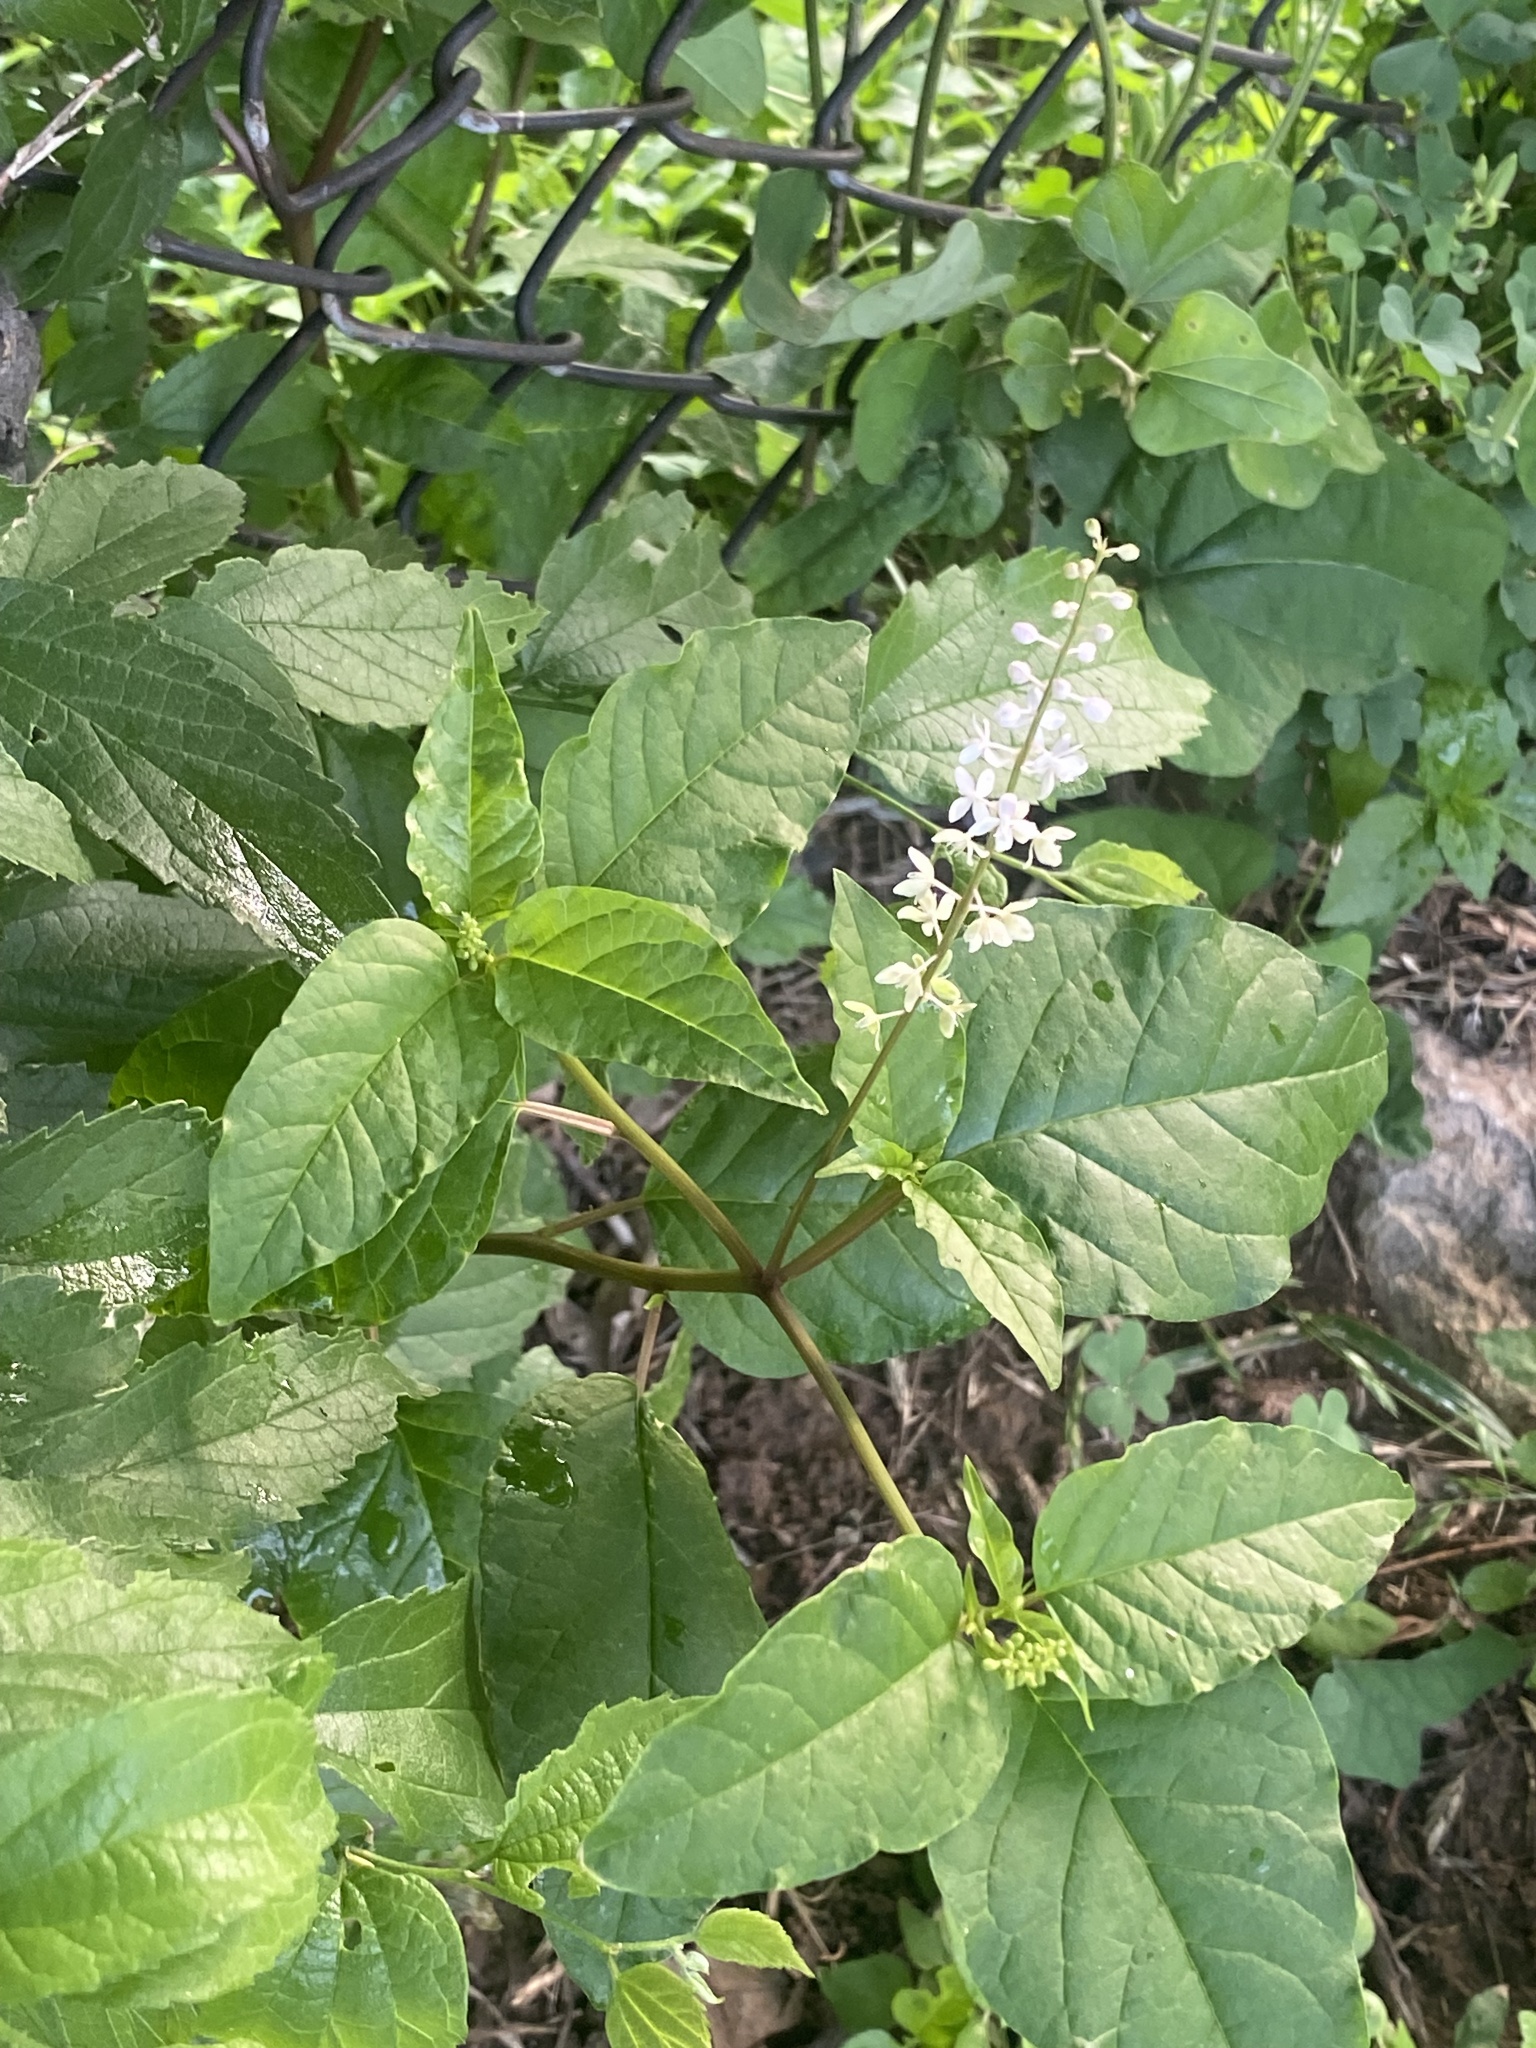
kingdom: Plantae
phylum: Tracheophyta
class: Magnoliopsida
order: Caryophyllales
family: Phytolaccaceae
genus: Rivina
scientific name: Rivina humilis
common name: Rougeplant
